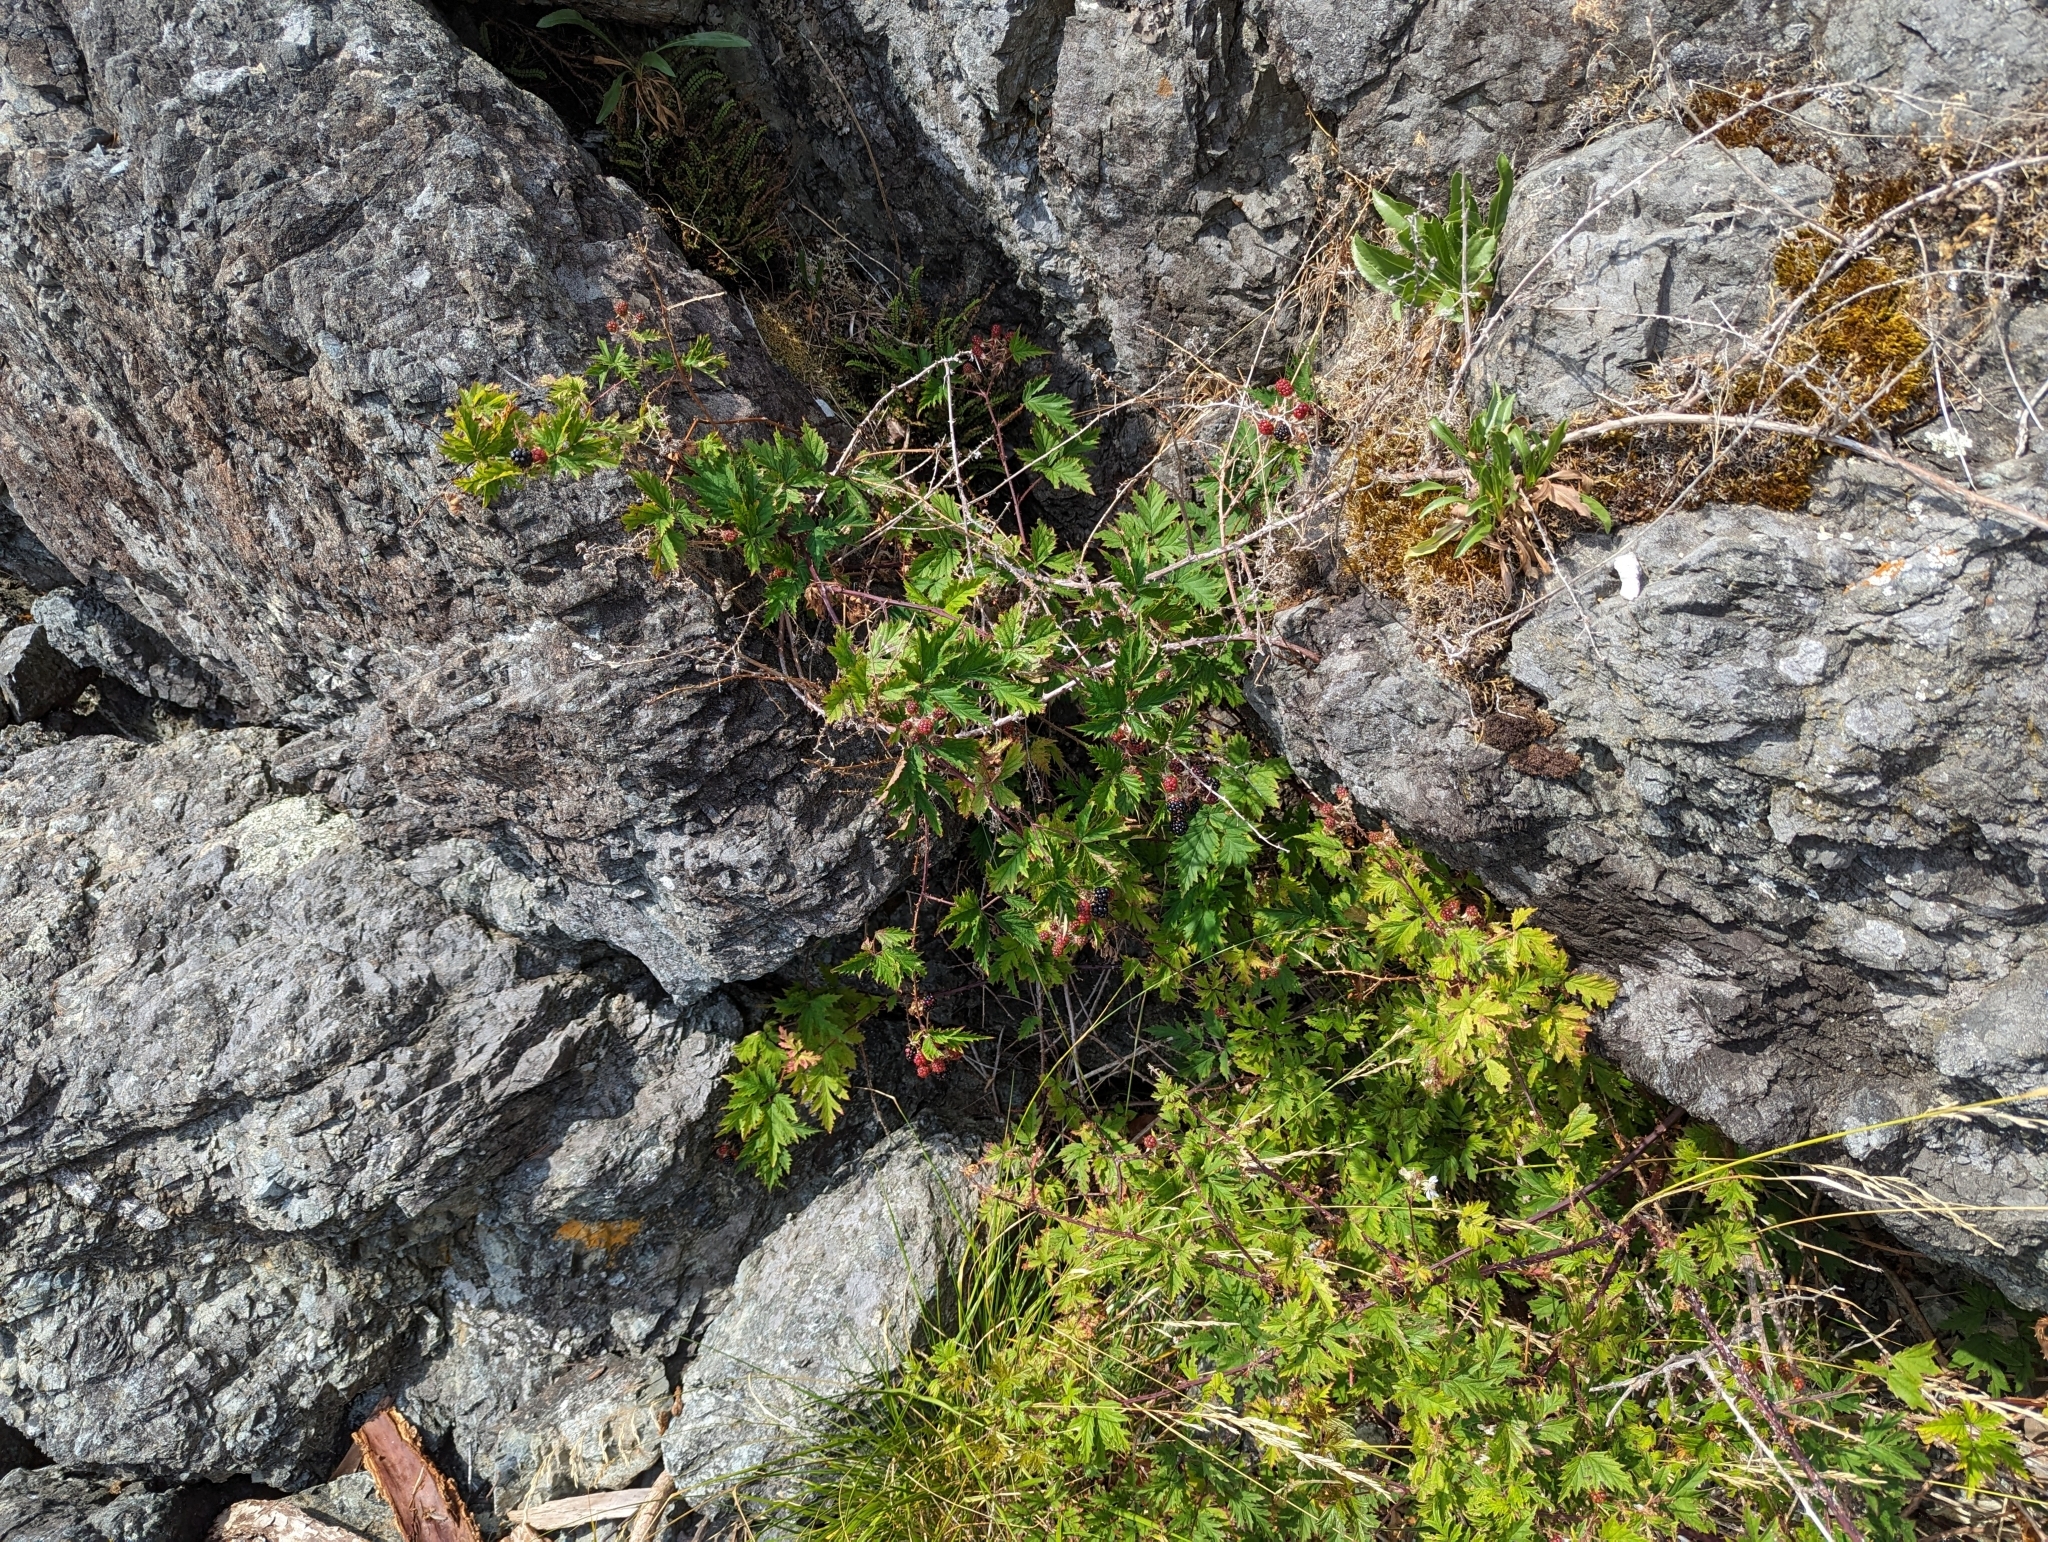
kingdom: Plantae
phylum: Tracheophyta
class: Magnoliopsida
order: Rosales
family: Rosaceae
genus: Rubus
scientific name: Rubus laciniatus
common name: Evergreen blackberry
